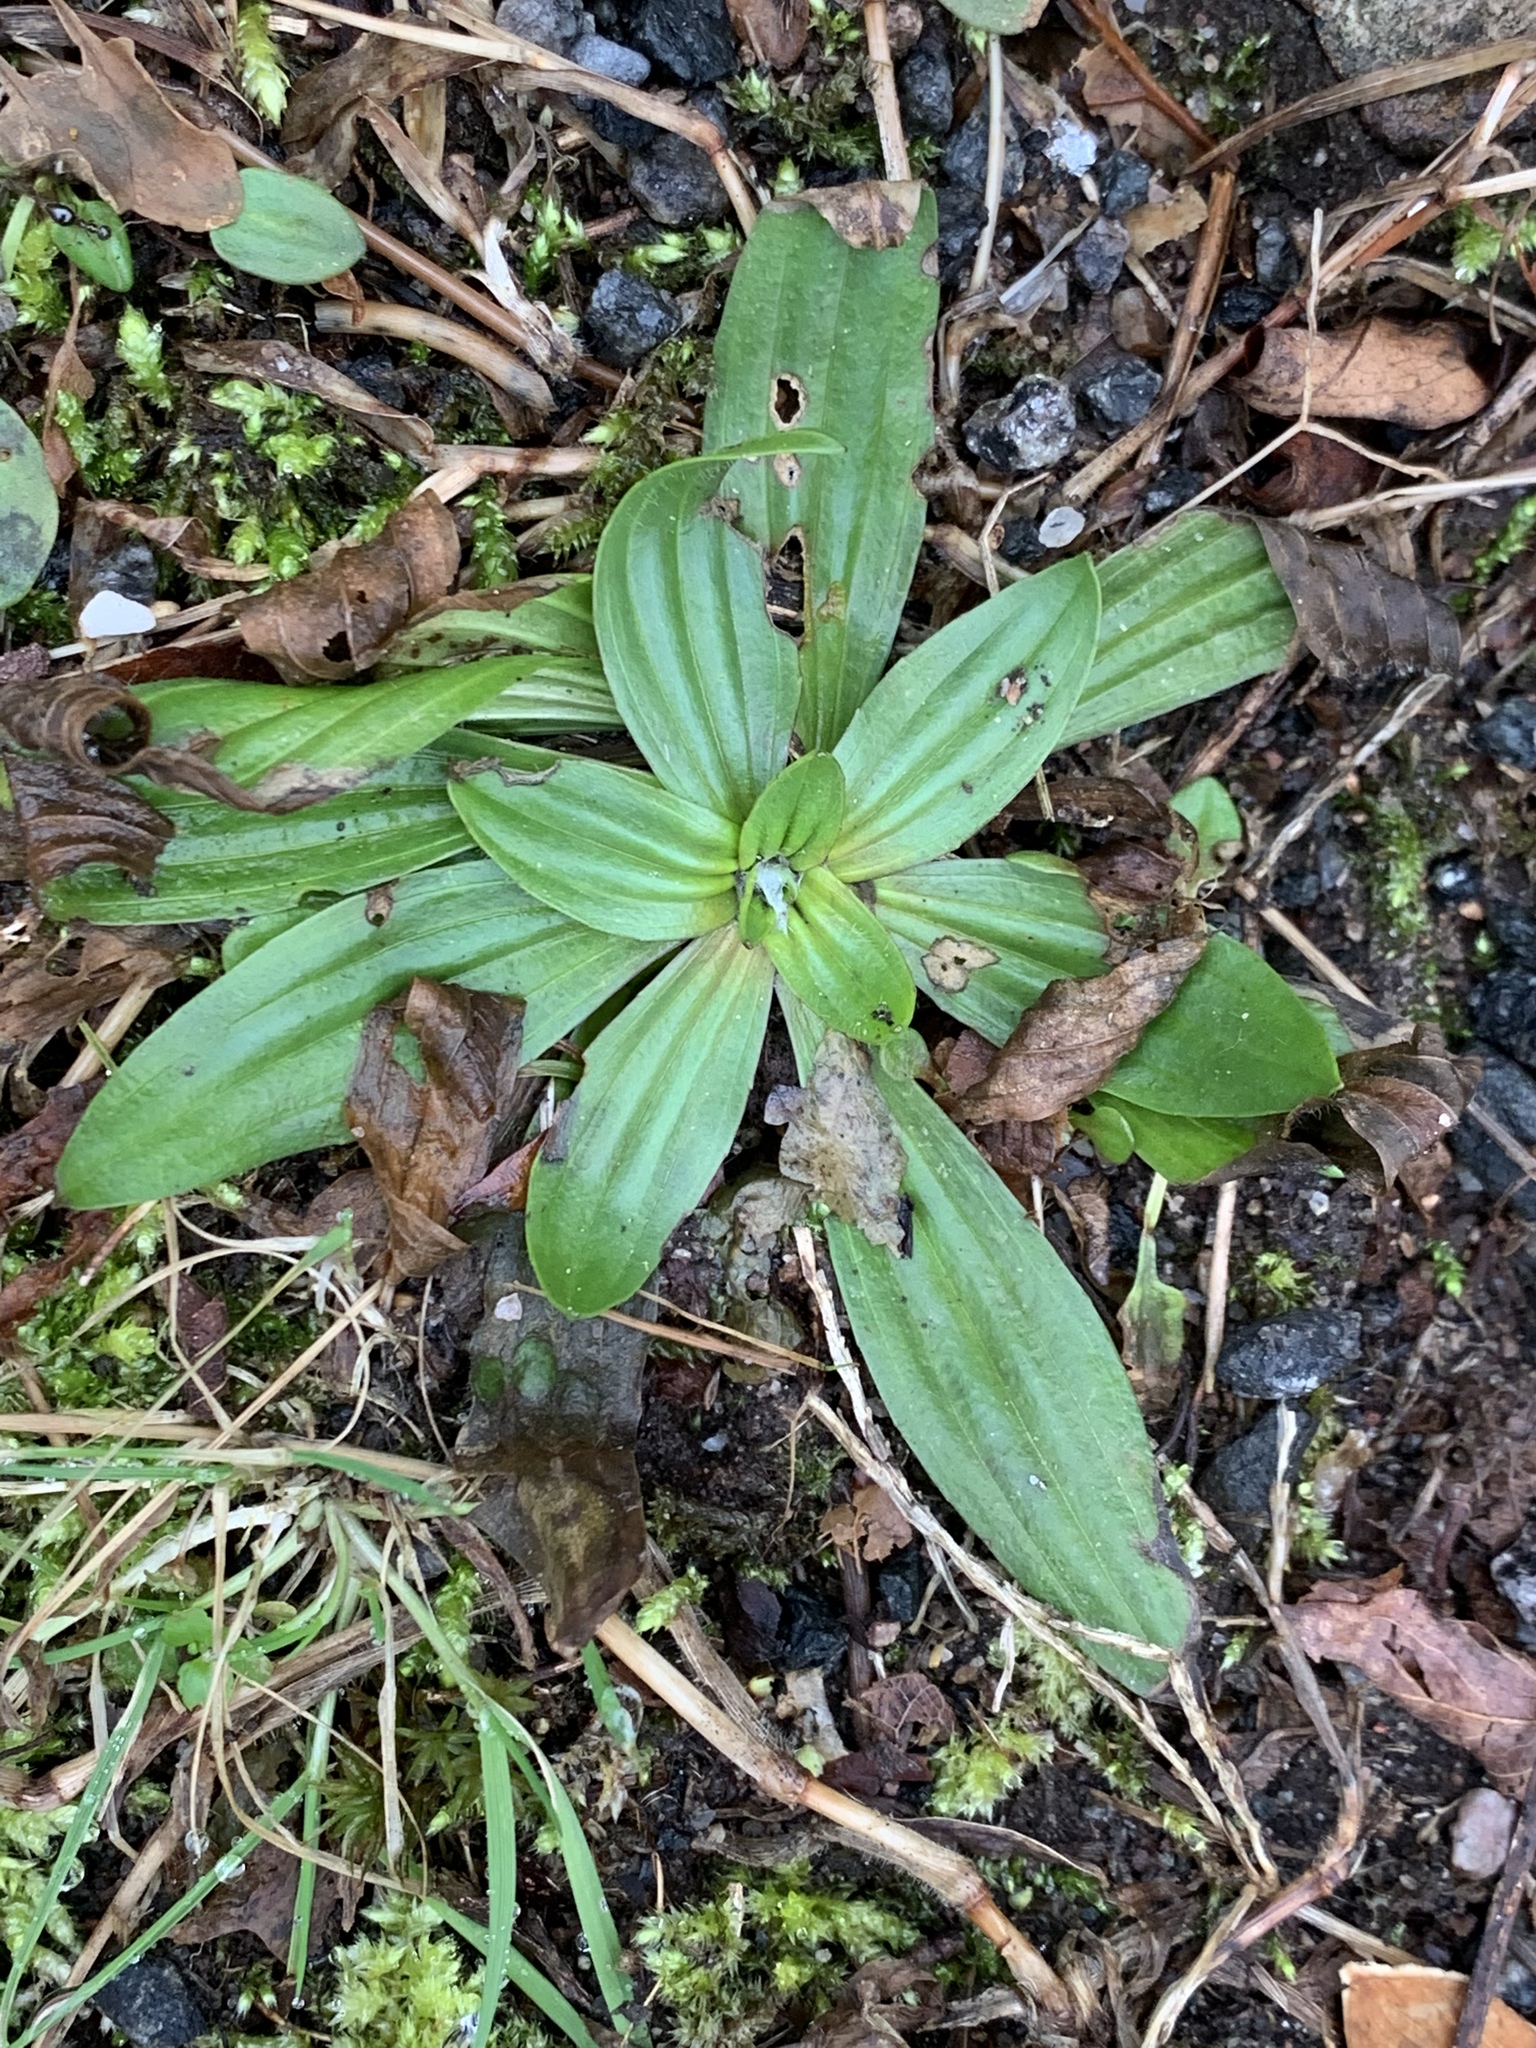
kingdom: Plantae
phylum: Tracheophyta
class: Magnoliopsida
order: Lamiales
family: Plantaginaceae
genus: Plantago
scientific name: Plantago lanceolata
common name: Ribwort plantain
